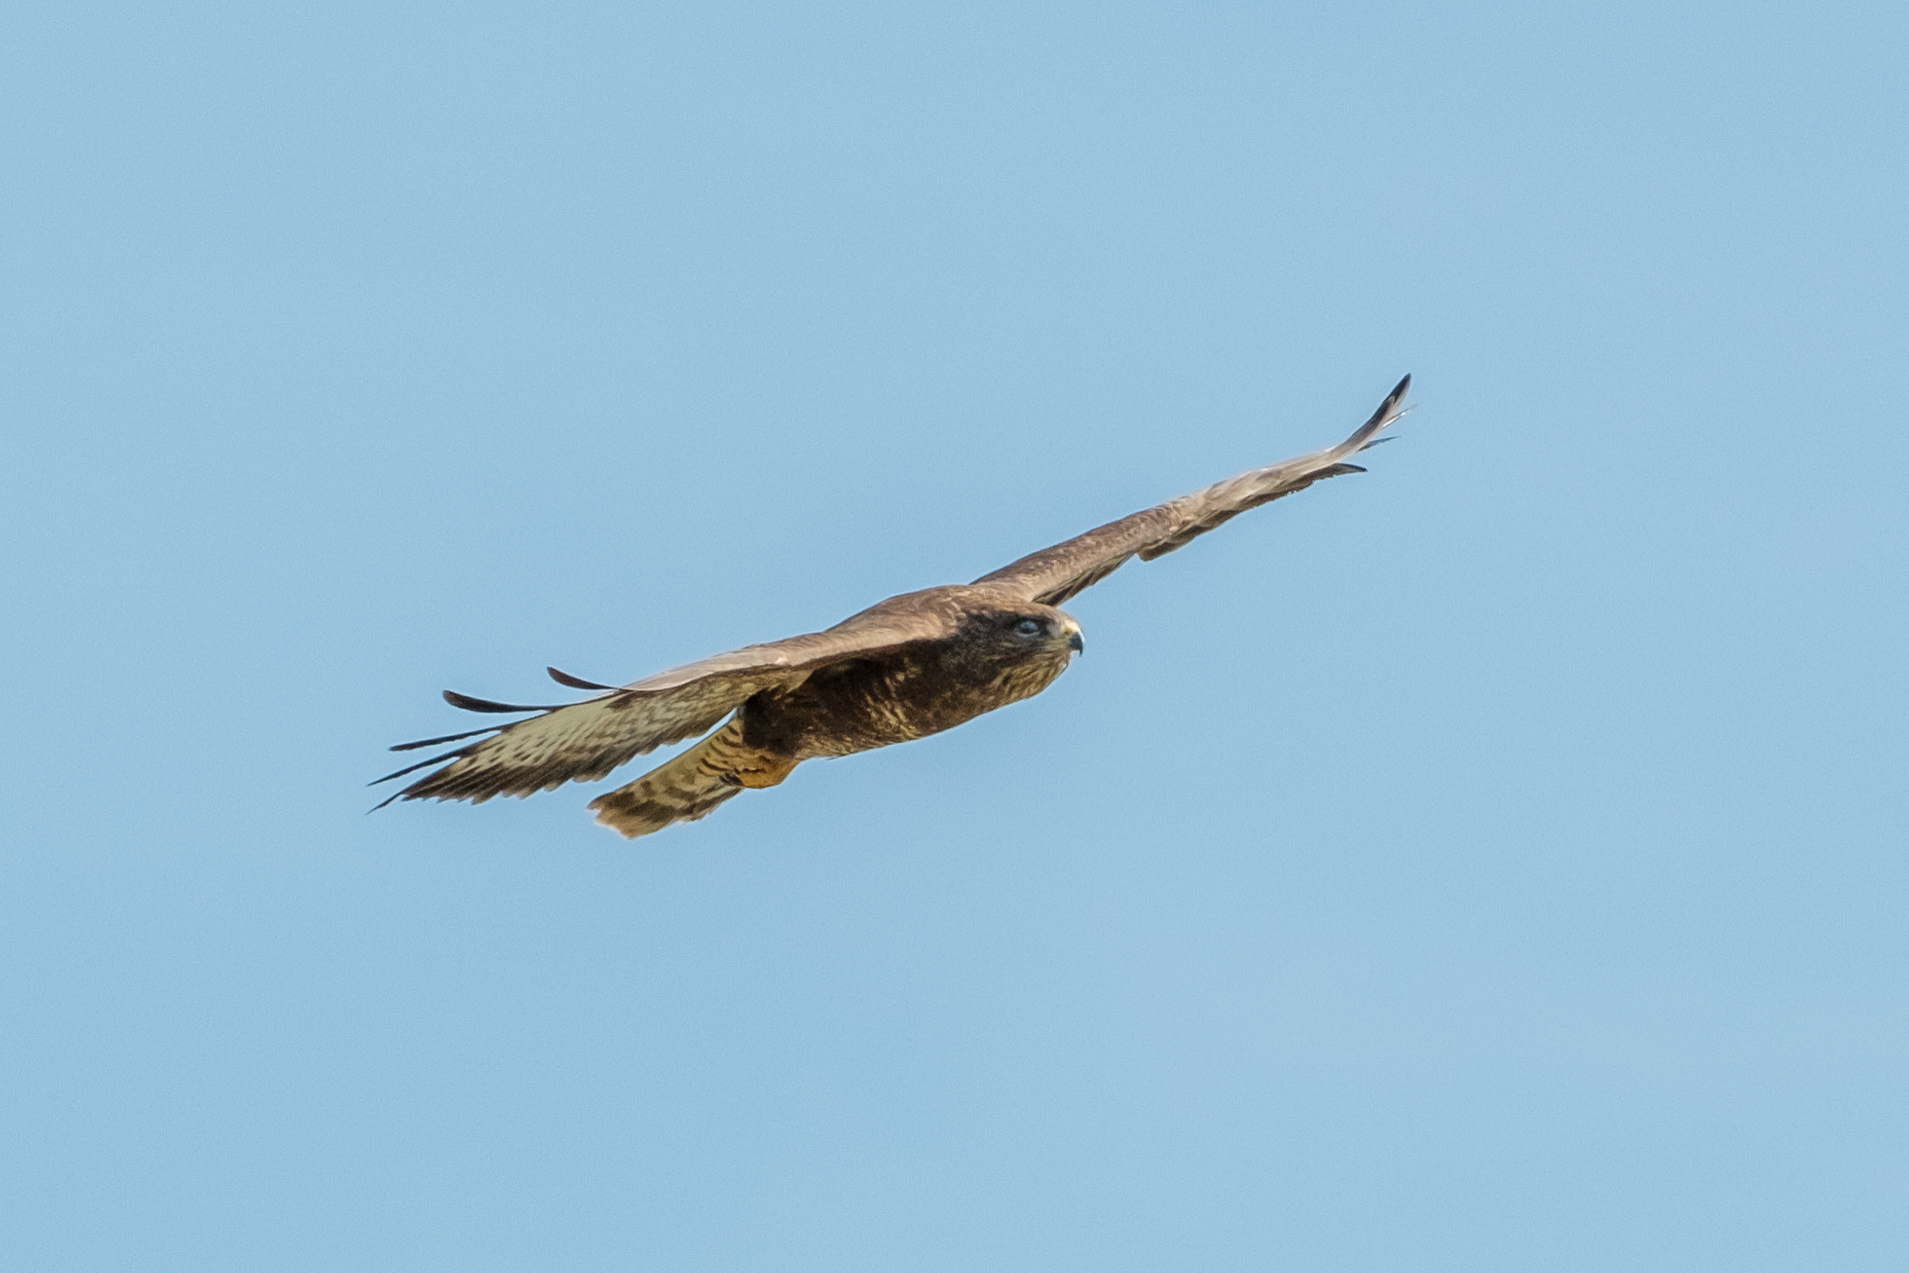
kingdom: Animalia
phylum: Chordata
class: Aves
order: Accipitriformes
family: Accipitridae
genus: Buteo
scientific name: Buteo buteo
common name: Common buzzard
